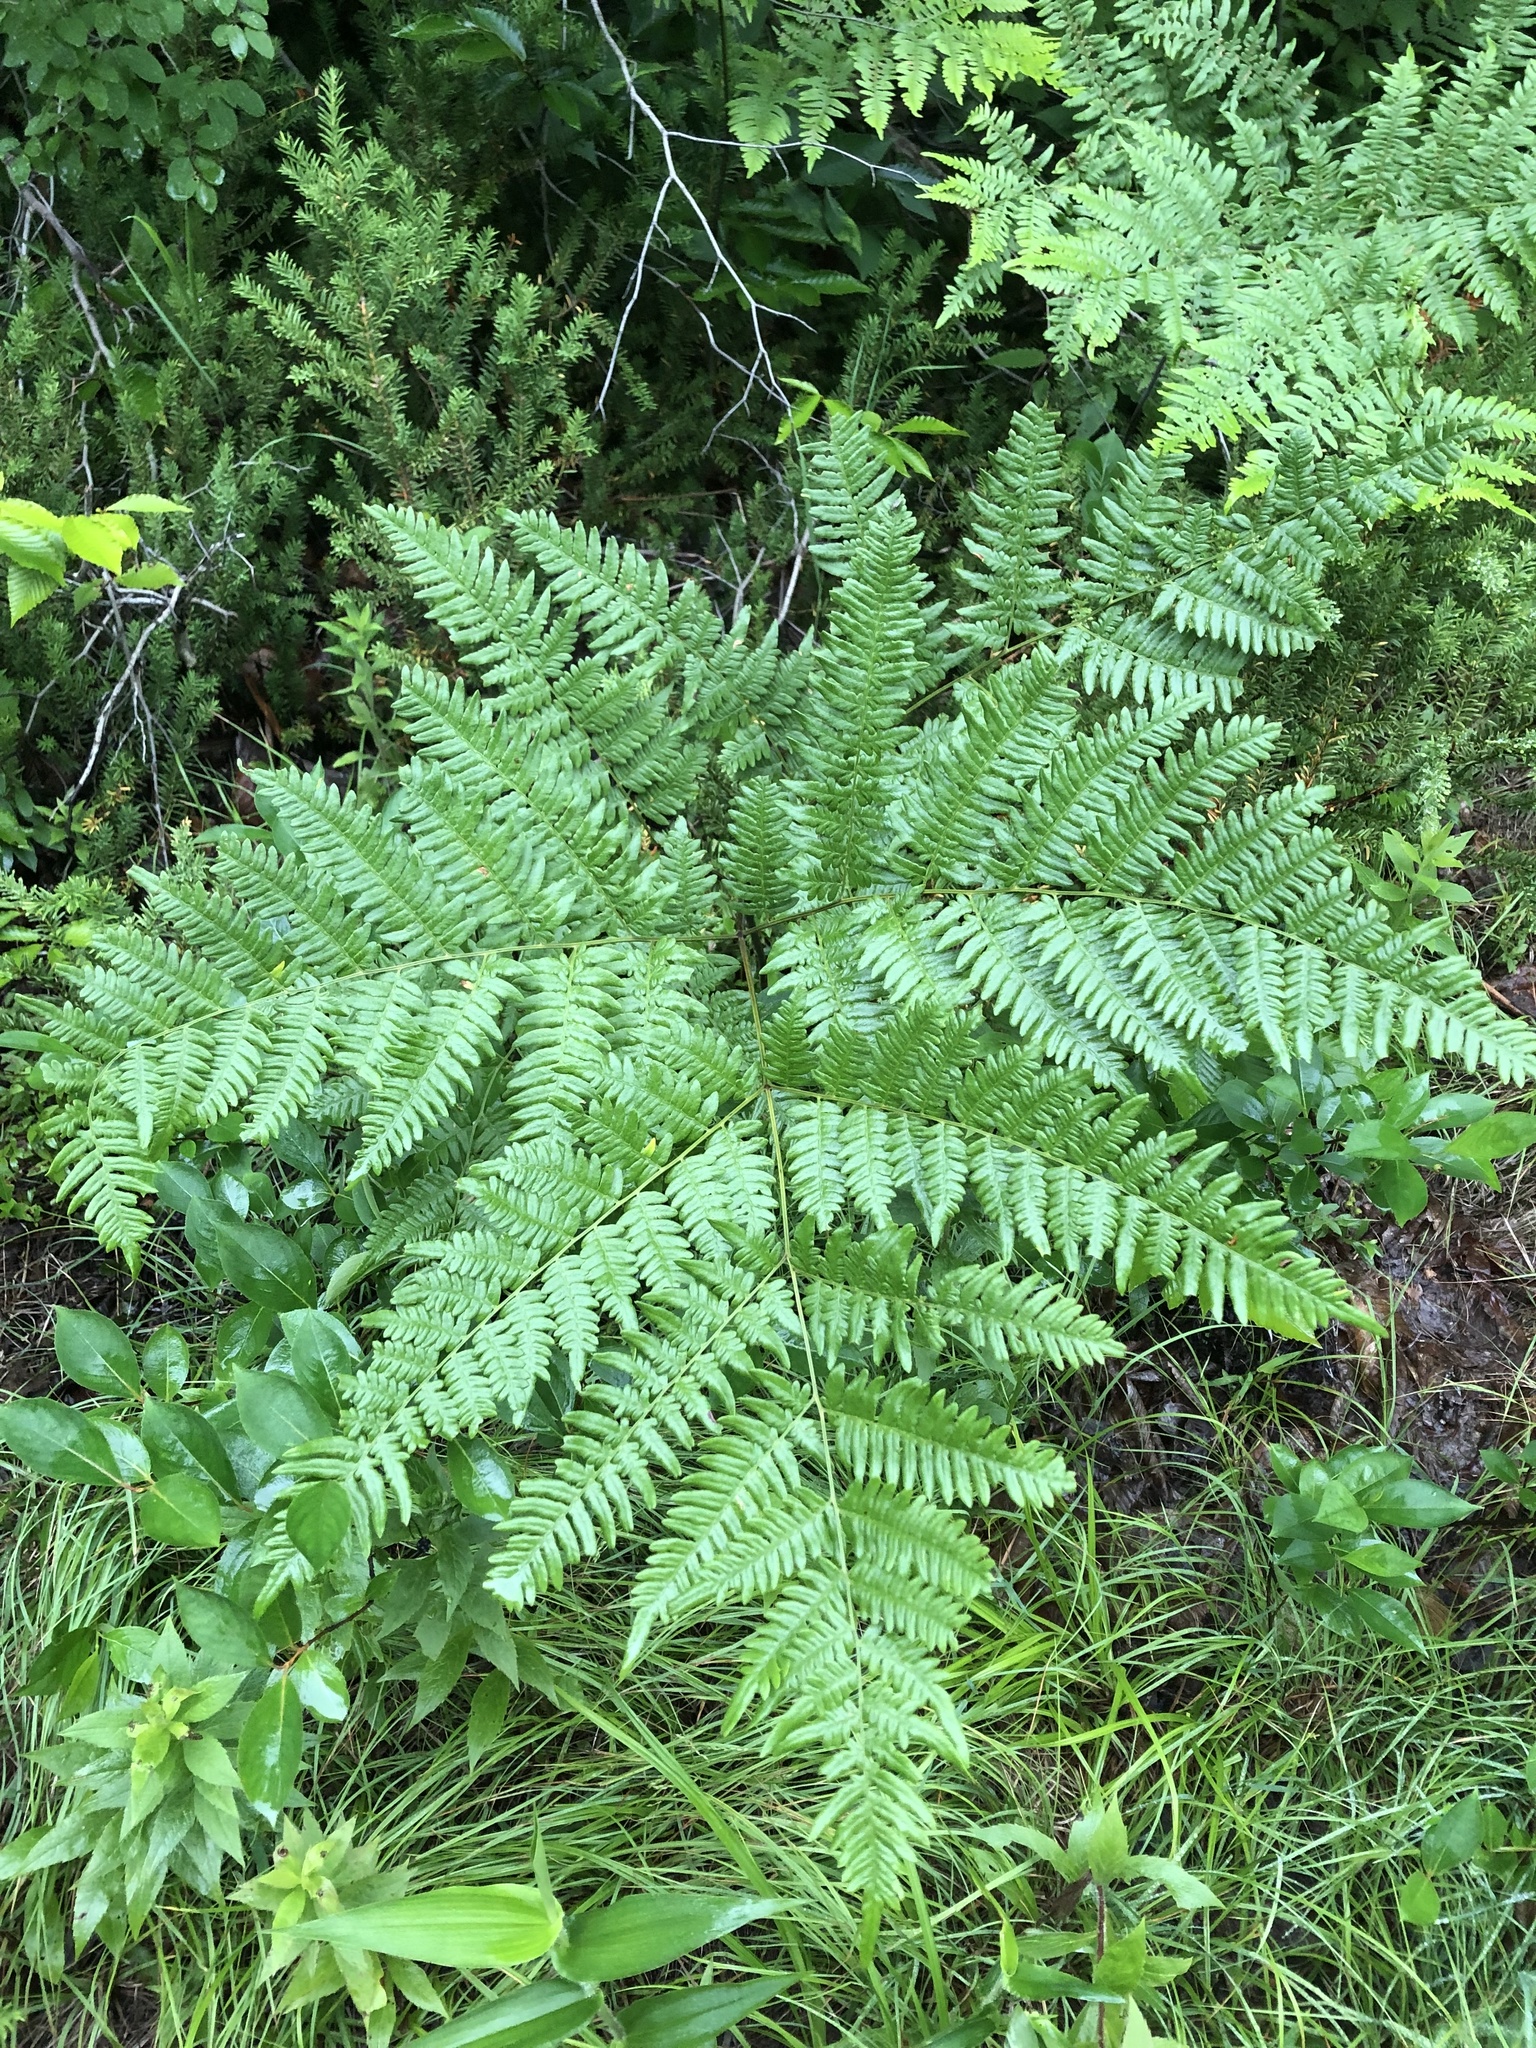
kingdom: Plantae
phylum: Tracheophyta
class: Polypodiopsida
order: Polypodiales
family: Dennstaedtiaceae
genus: Pteridium
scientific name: Pteridium aquilinum
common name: Bracken
